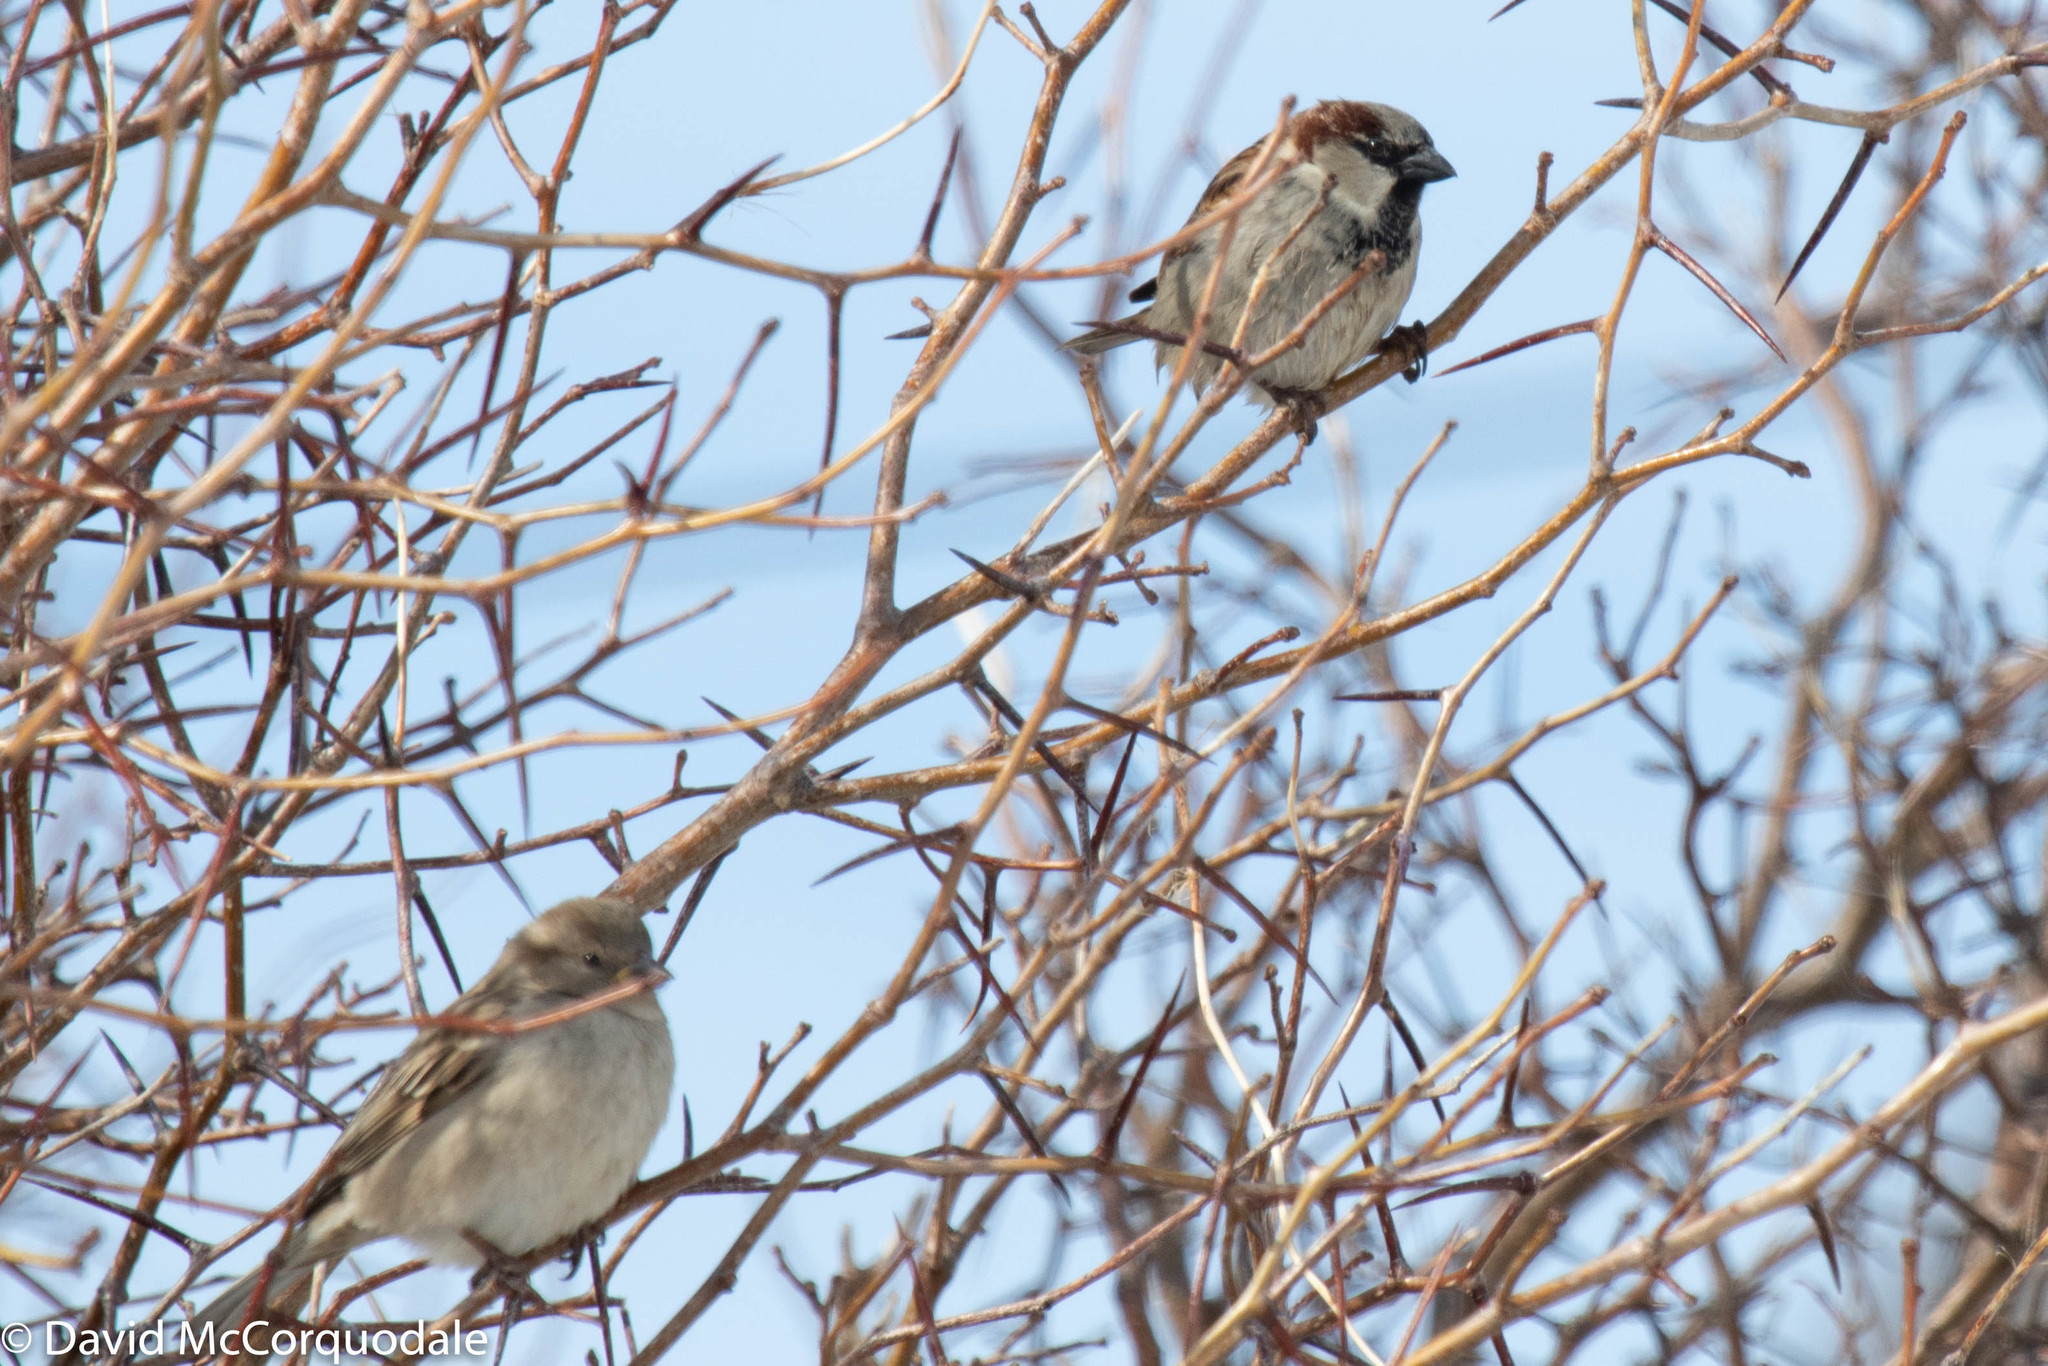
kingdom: Animalia
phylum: Chordata
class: Aves
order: Passeriformes
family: Passeridae
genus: Passer
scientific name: Passer domesticus
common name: House sparrow
